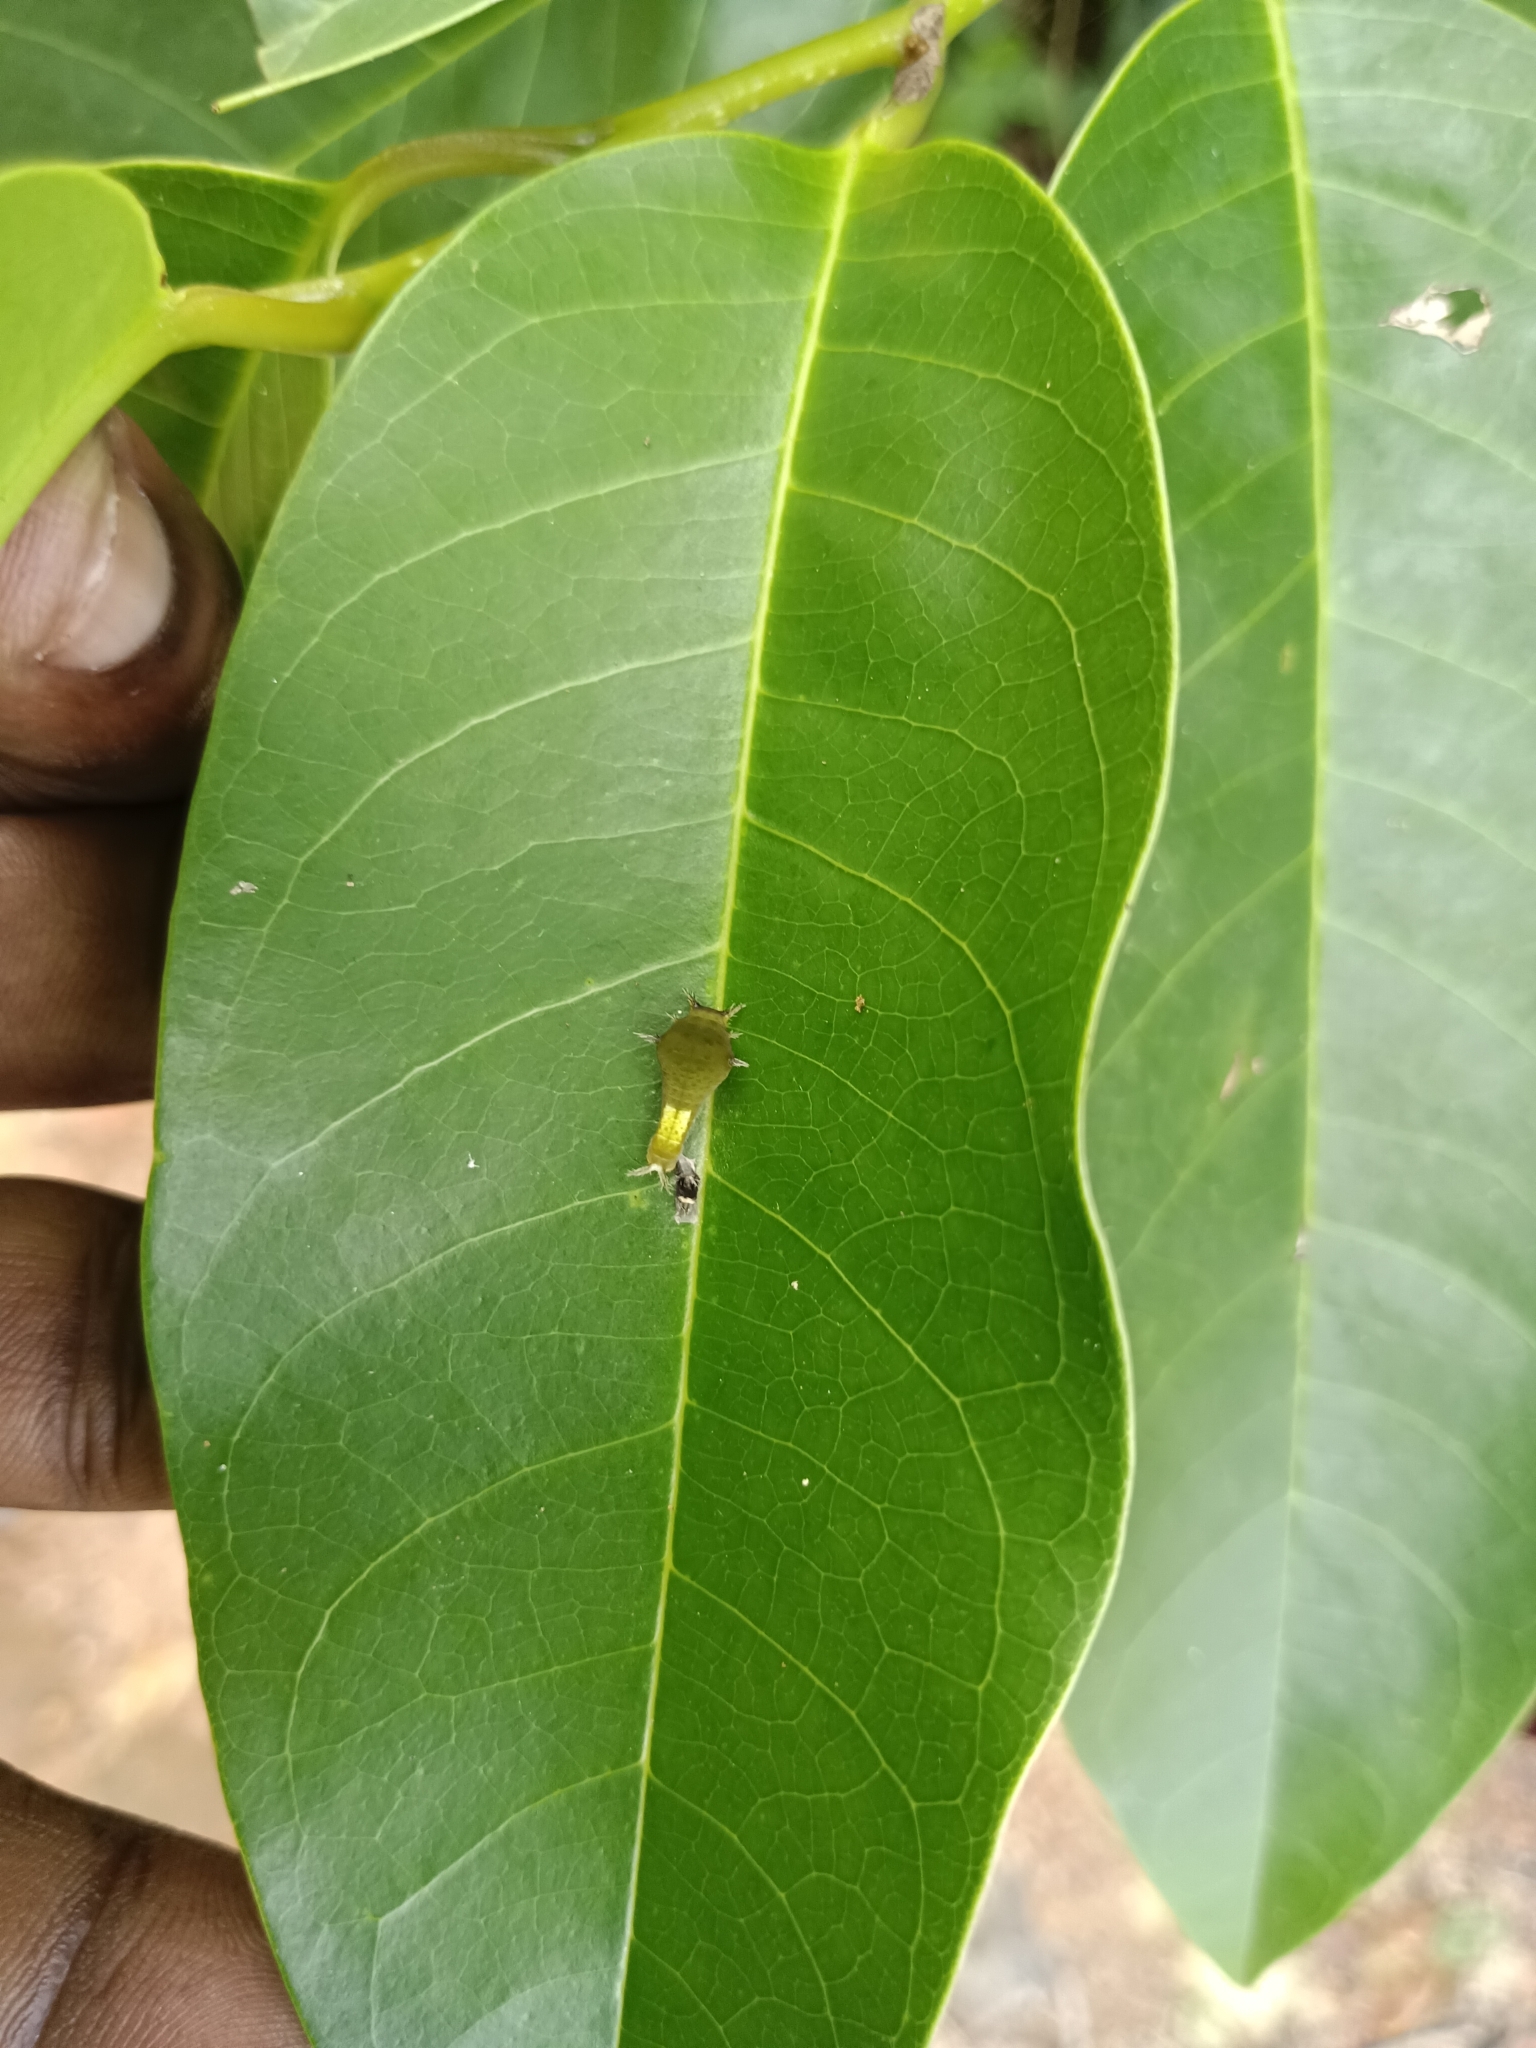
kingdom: Animalia
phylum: Arthropoda
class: Insecta
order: Lepidoptera
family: Papilionidae
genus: Graphium
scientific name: Graphium agamemnon
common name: Tailed jay
